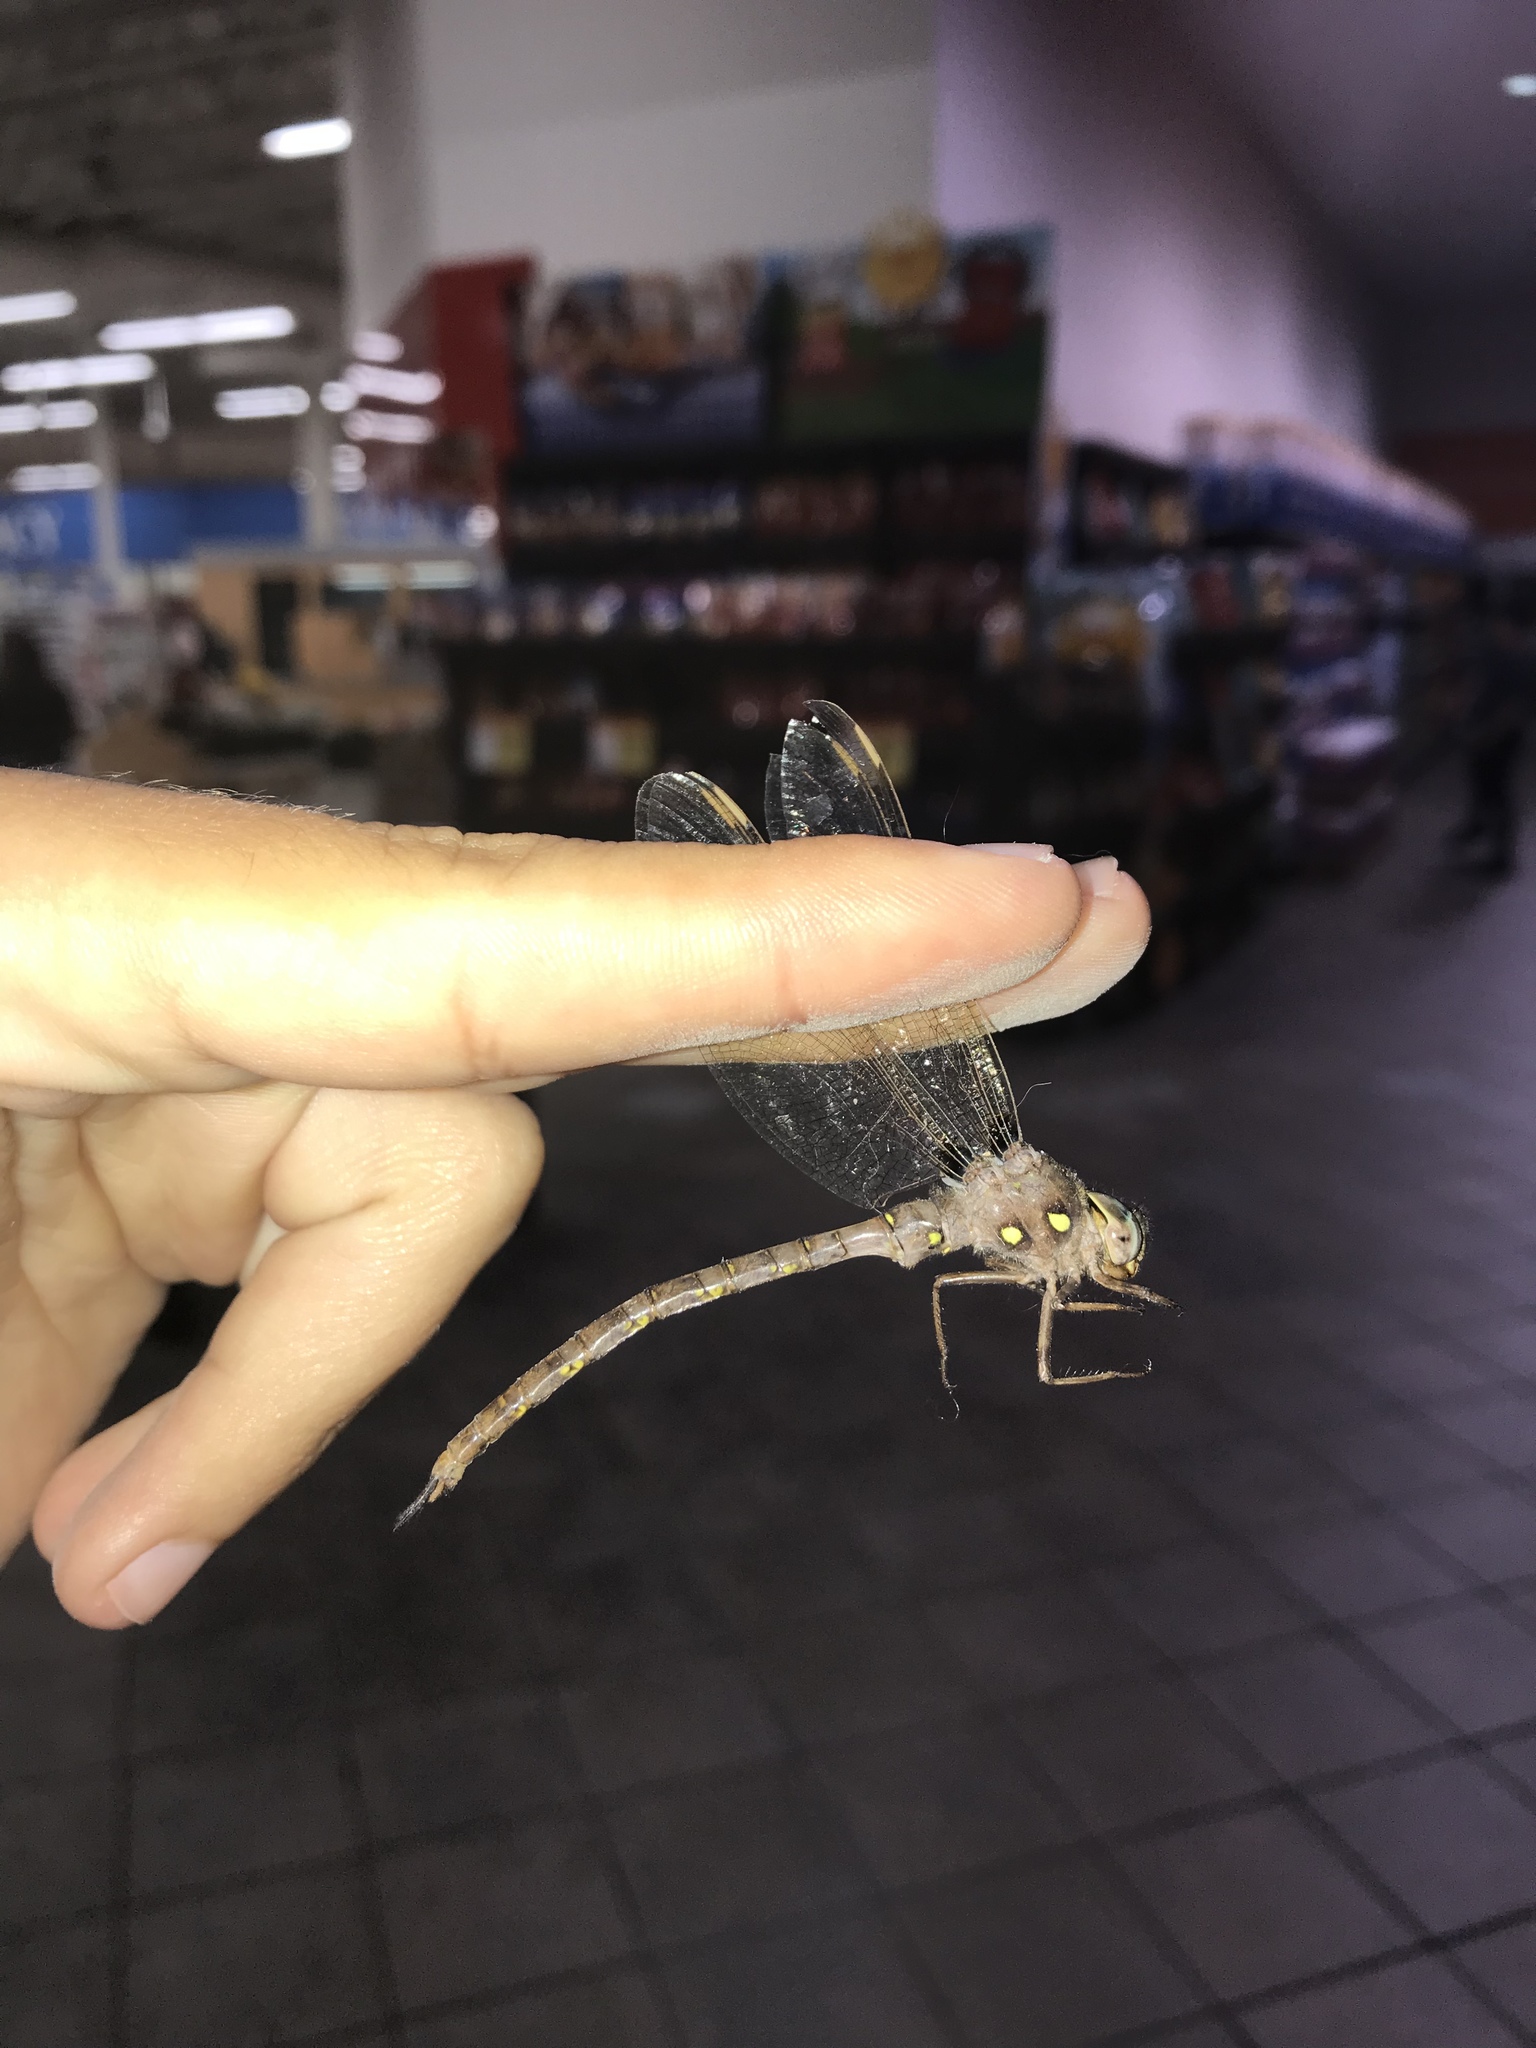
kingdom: Animalia
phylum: Arthropoda
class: Insecta
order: Odonata
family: Aeshnidae
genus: Boyeria
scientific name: Boyeria vinosa
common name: Fawn darner
